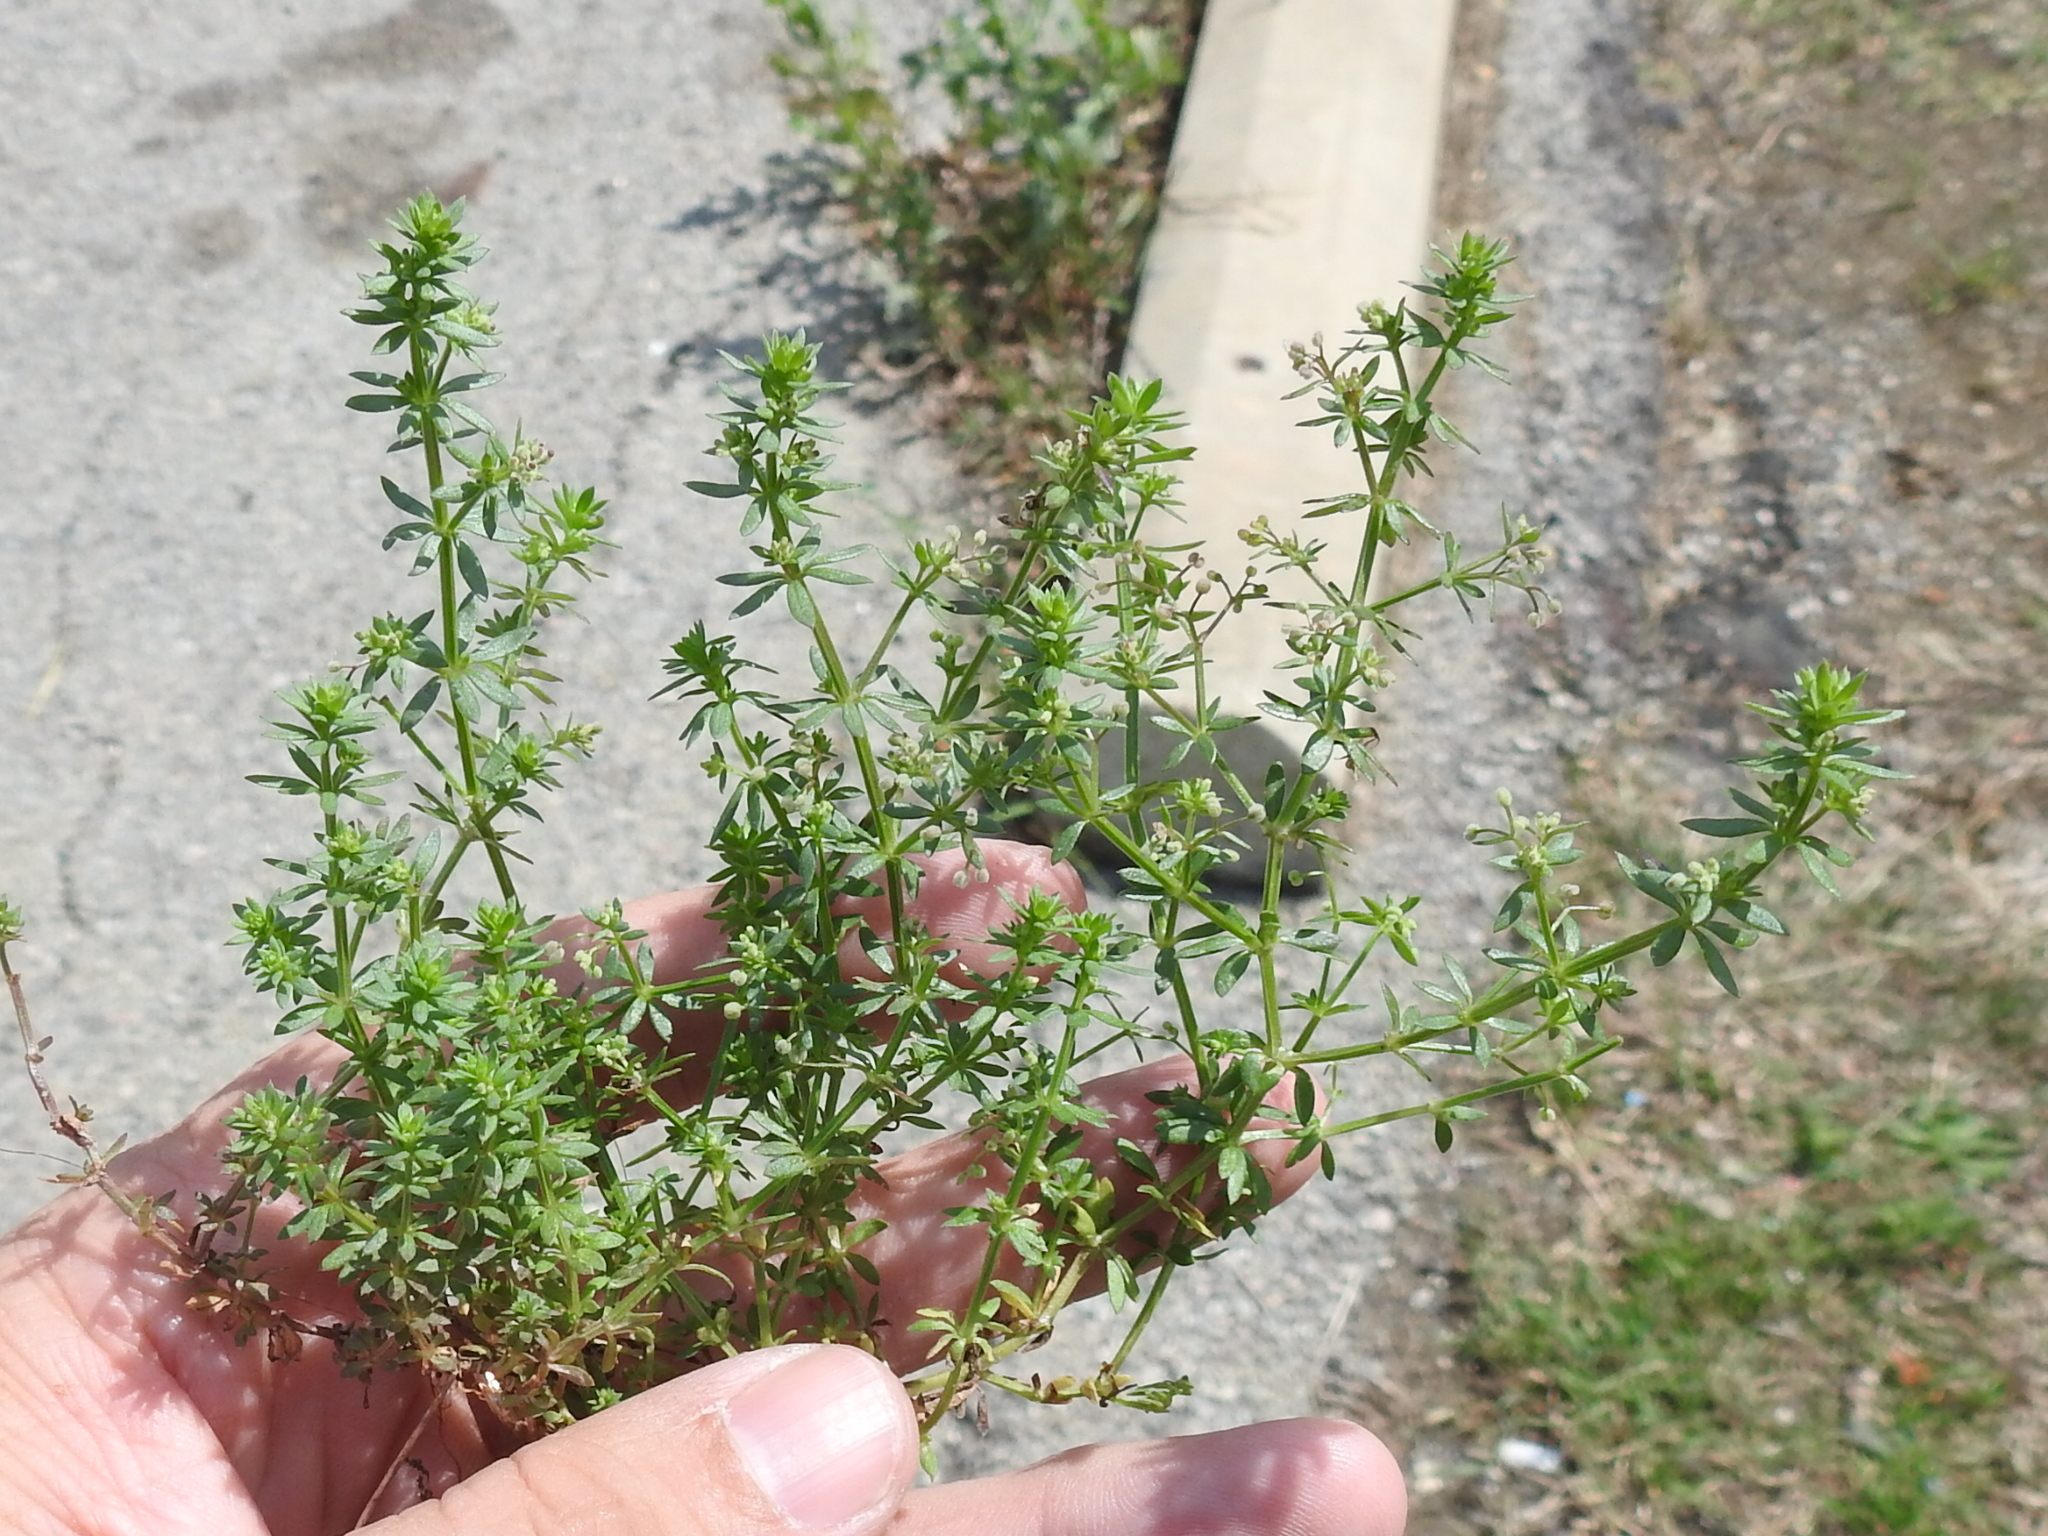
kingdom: Plantae
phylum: Tracheophyta
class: Magnoliopsida
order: Gentianales
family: Rubiaceae
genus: Galium
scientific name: Galium parisiense
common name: Wall bedstraw
